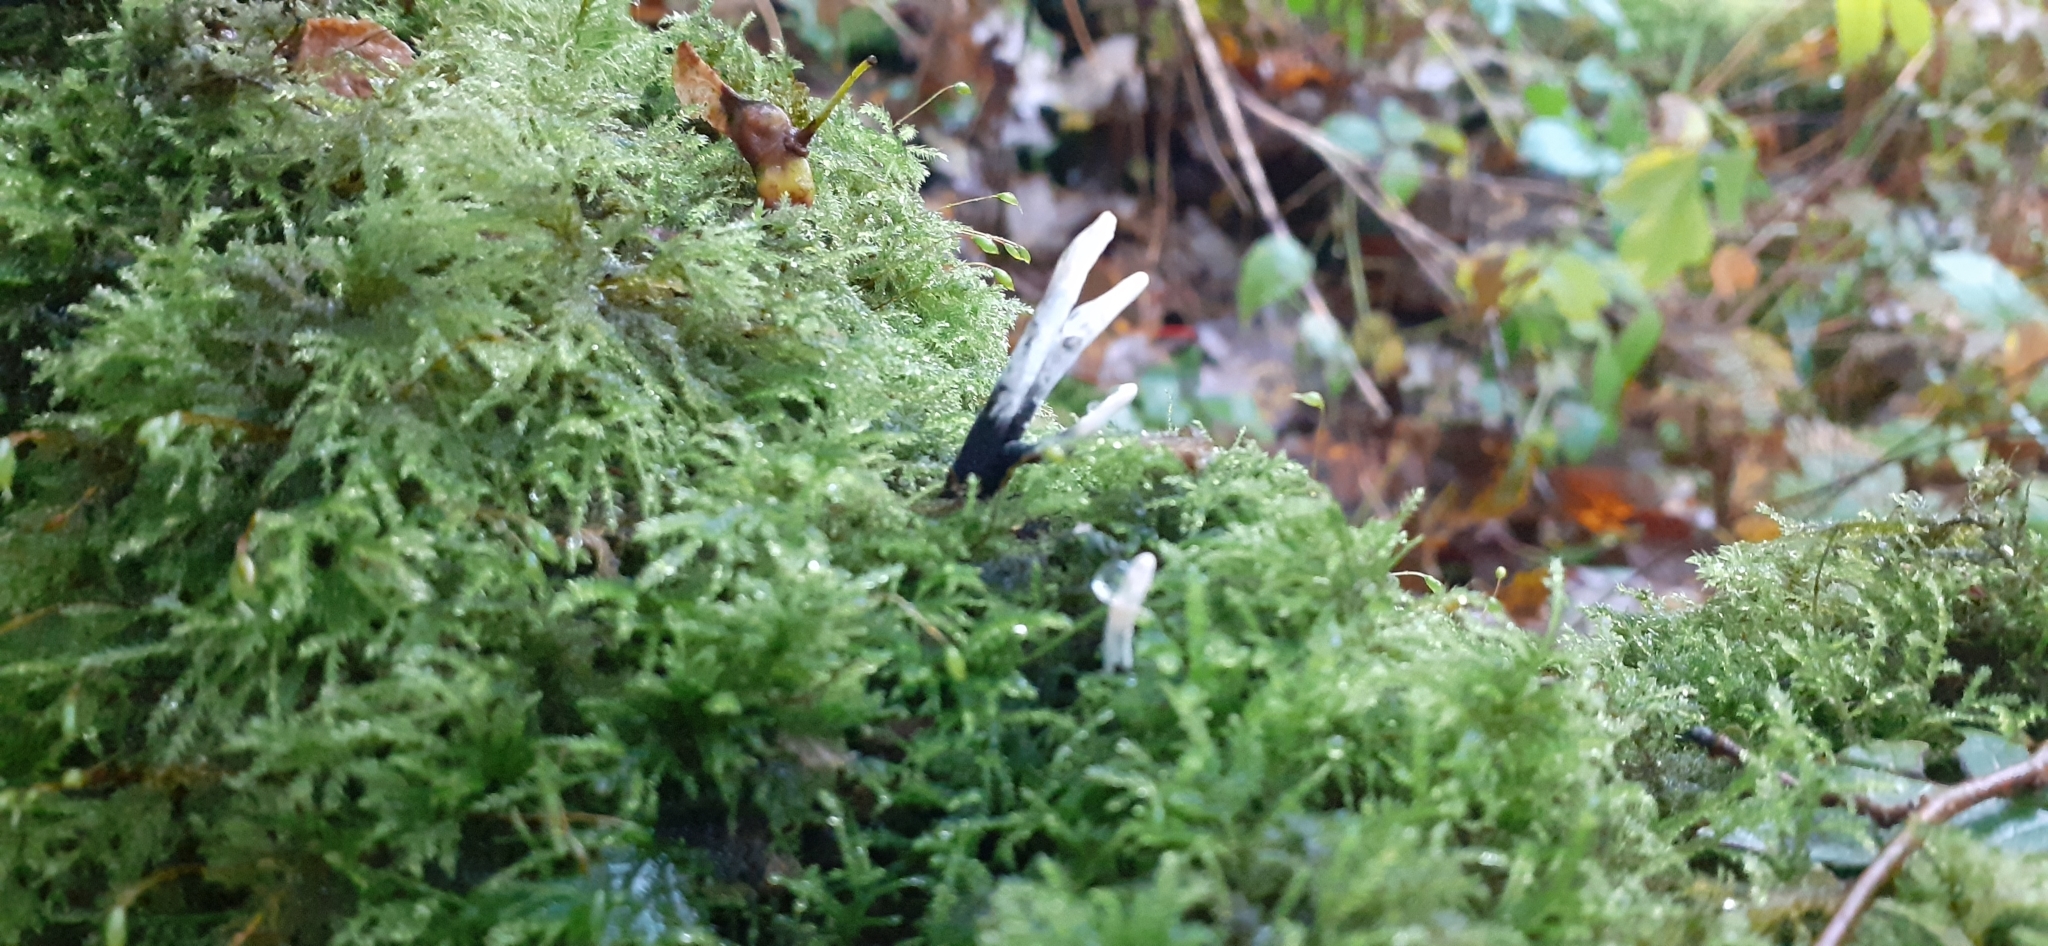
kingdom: Fungi
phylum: Ascomycota
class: Sordariomycetes
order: Xylariales
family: Xylariaceae
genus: Xylaria
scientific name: Xylaria hypoxylon
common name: Candle-snuff fungus
